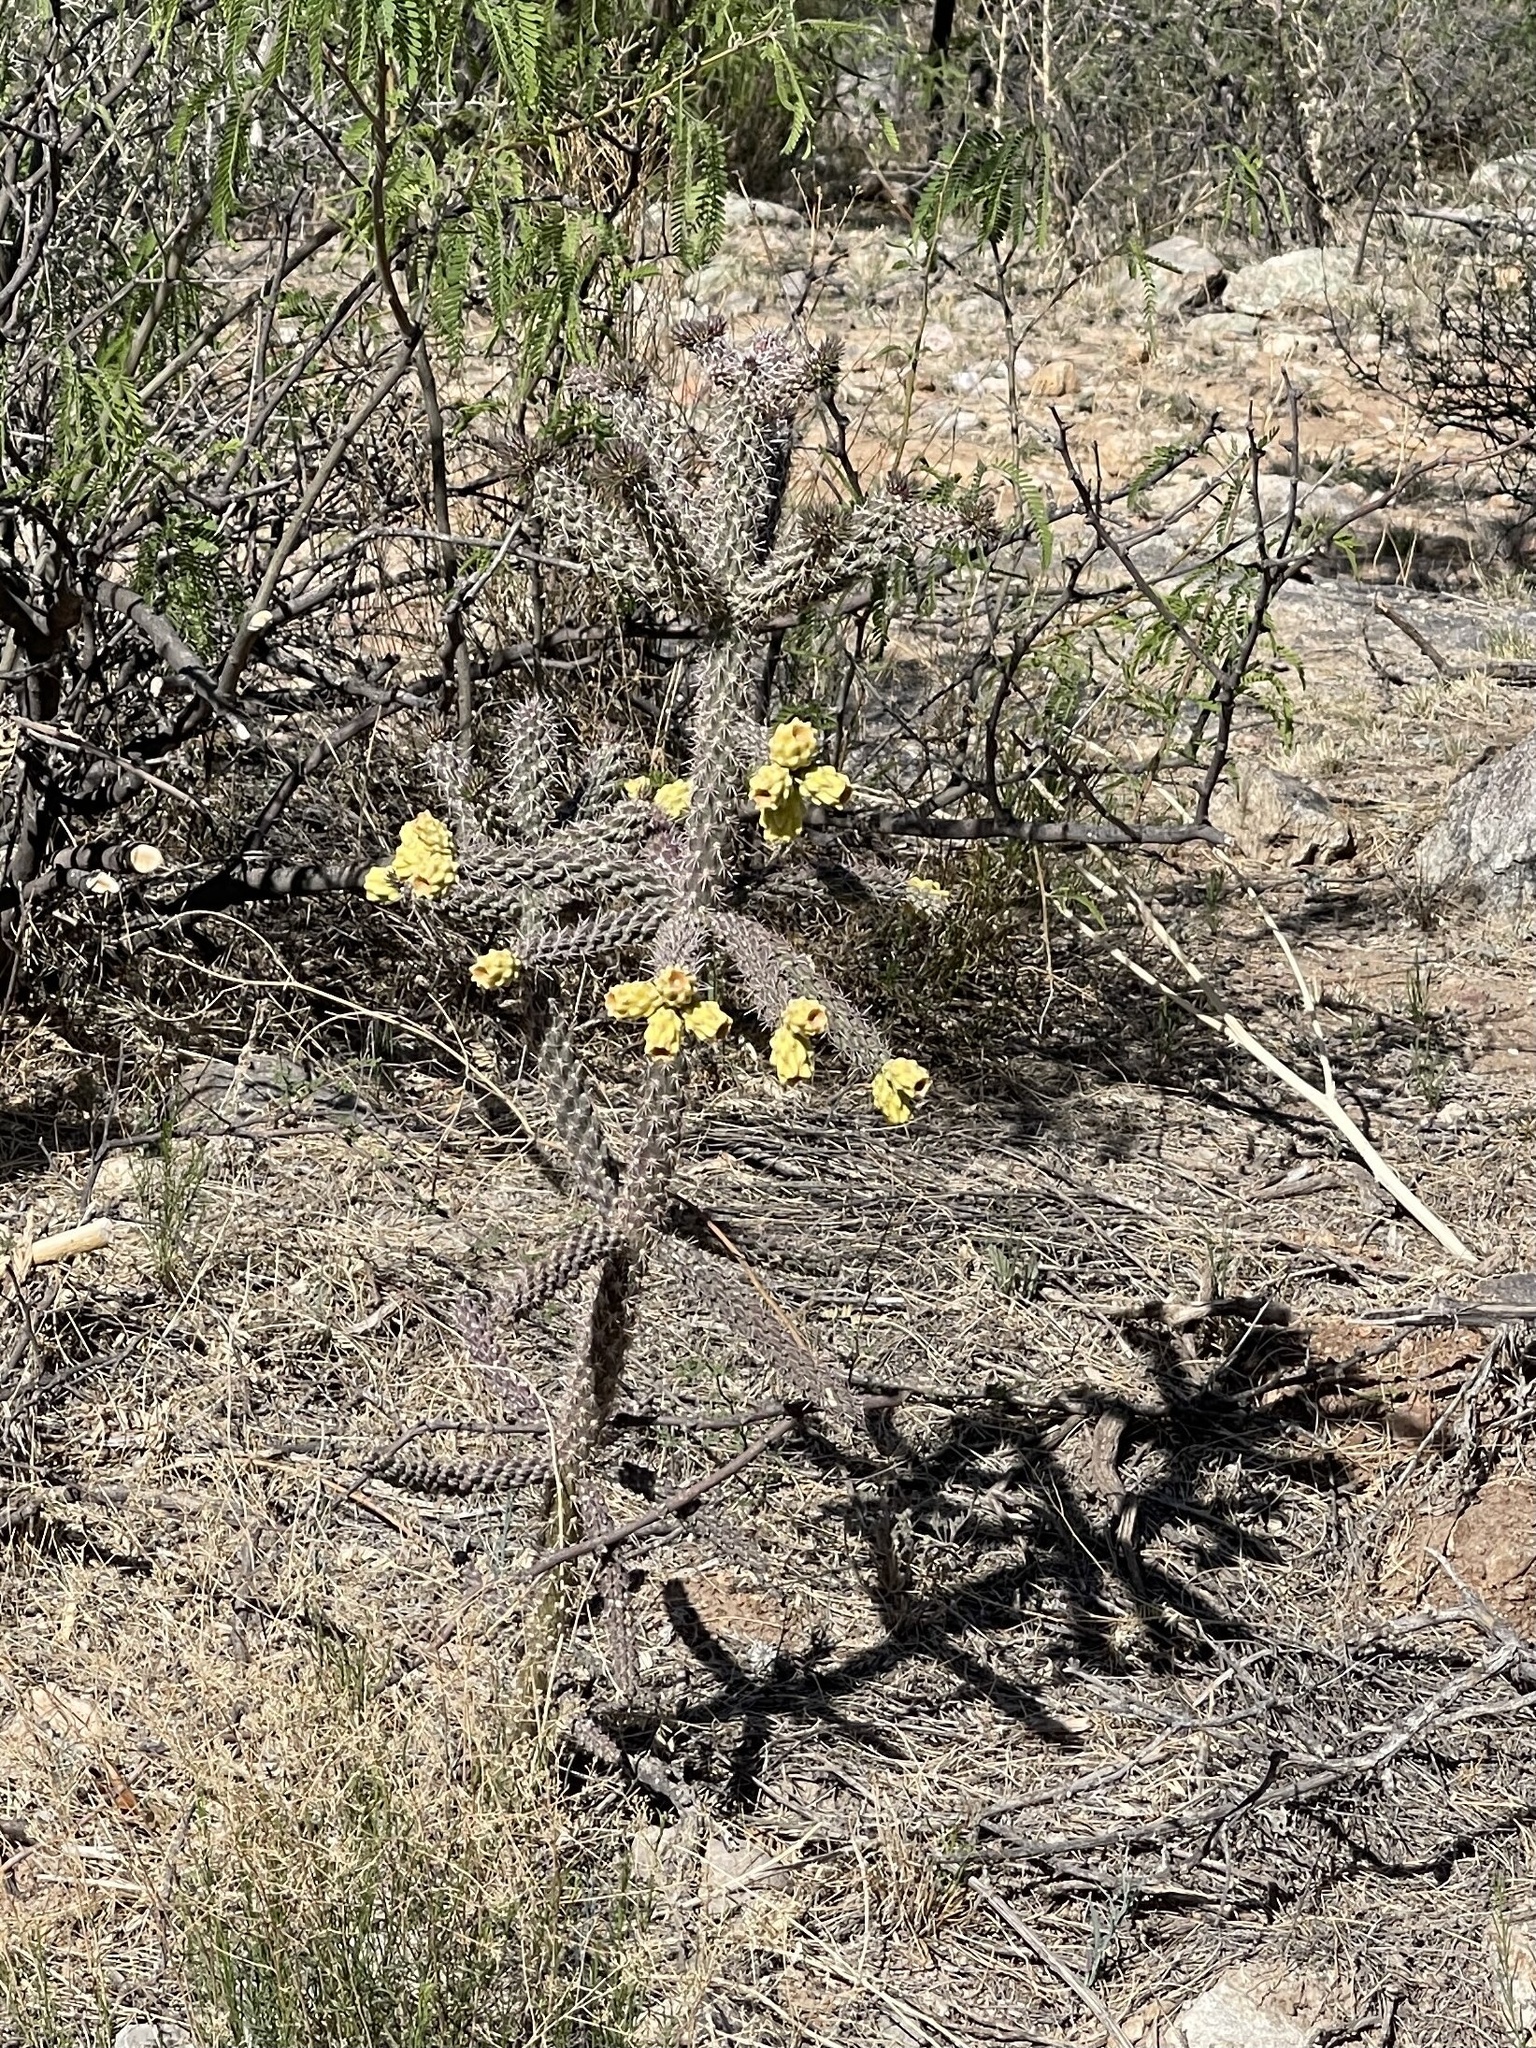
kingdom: Plantae
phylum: Tracheophyta
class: Magnoliopsida
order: Caryophyllales
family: Cactaceae
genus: Cylindropuntia
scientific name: Cylindropuntia imbricata
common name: Candelabrum cactus
